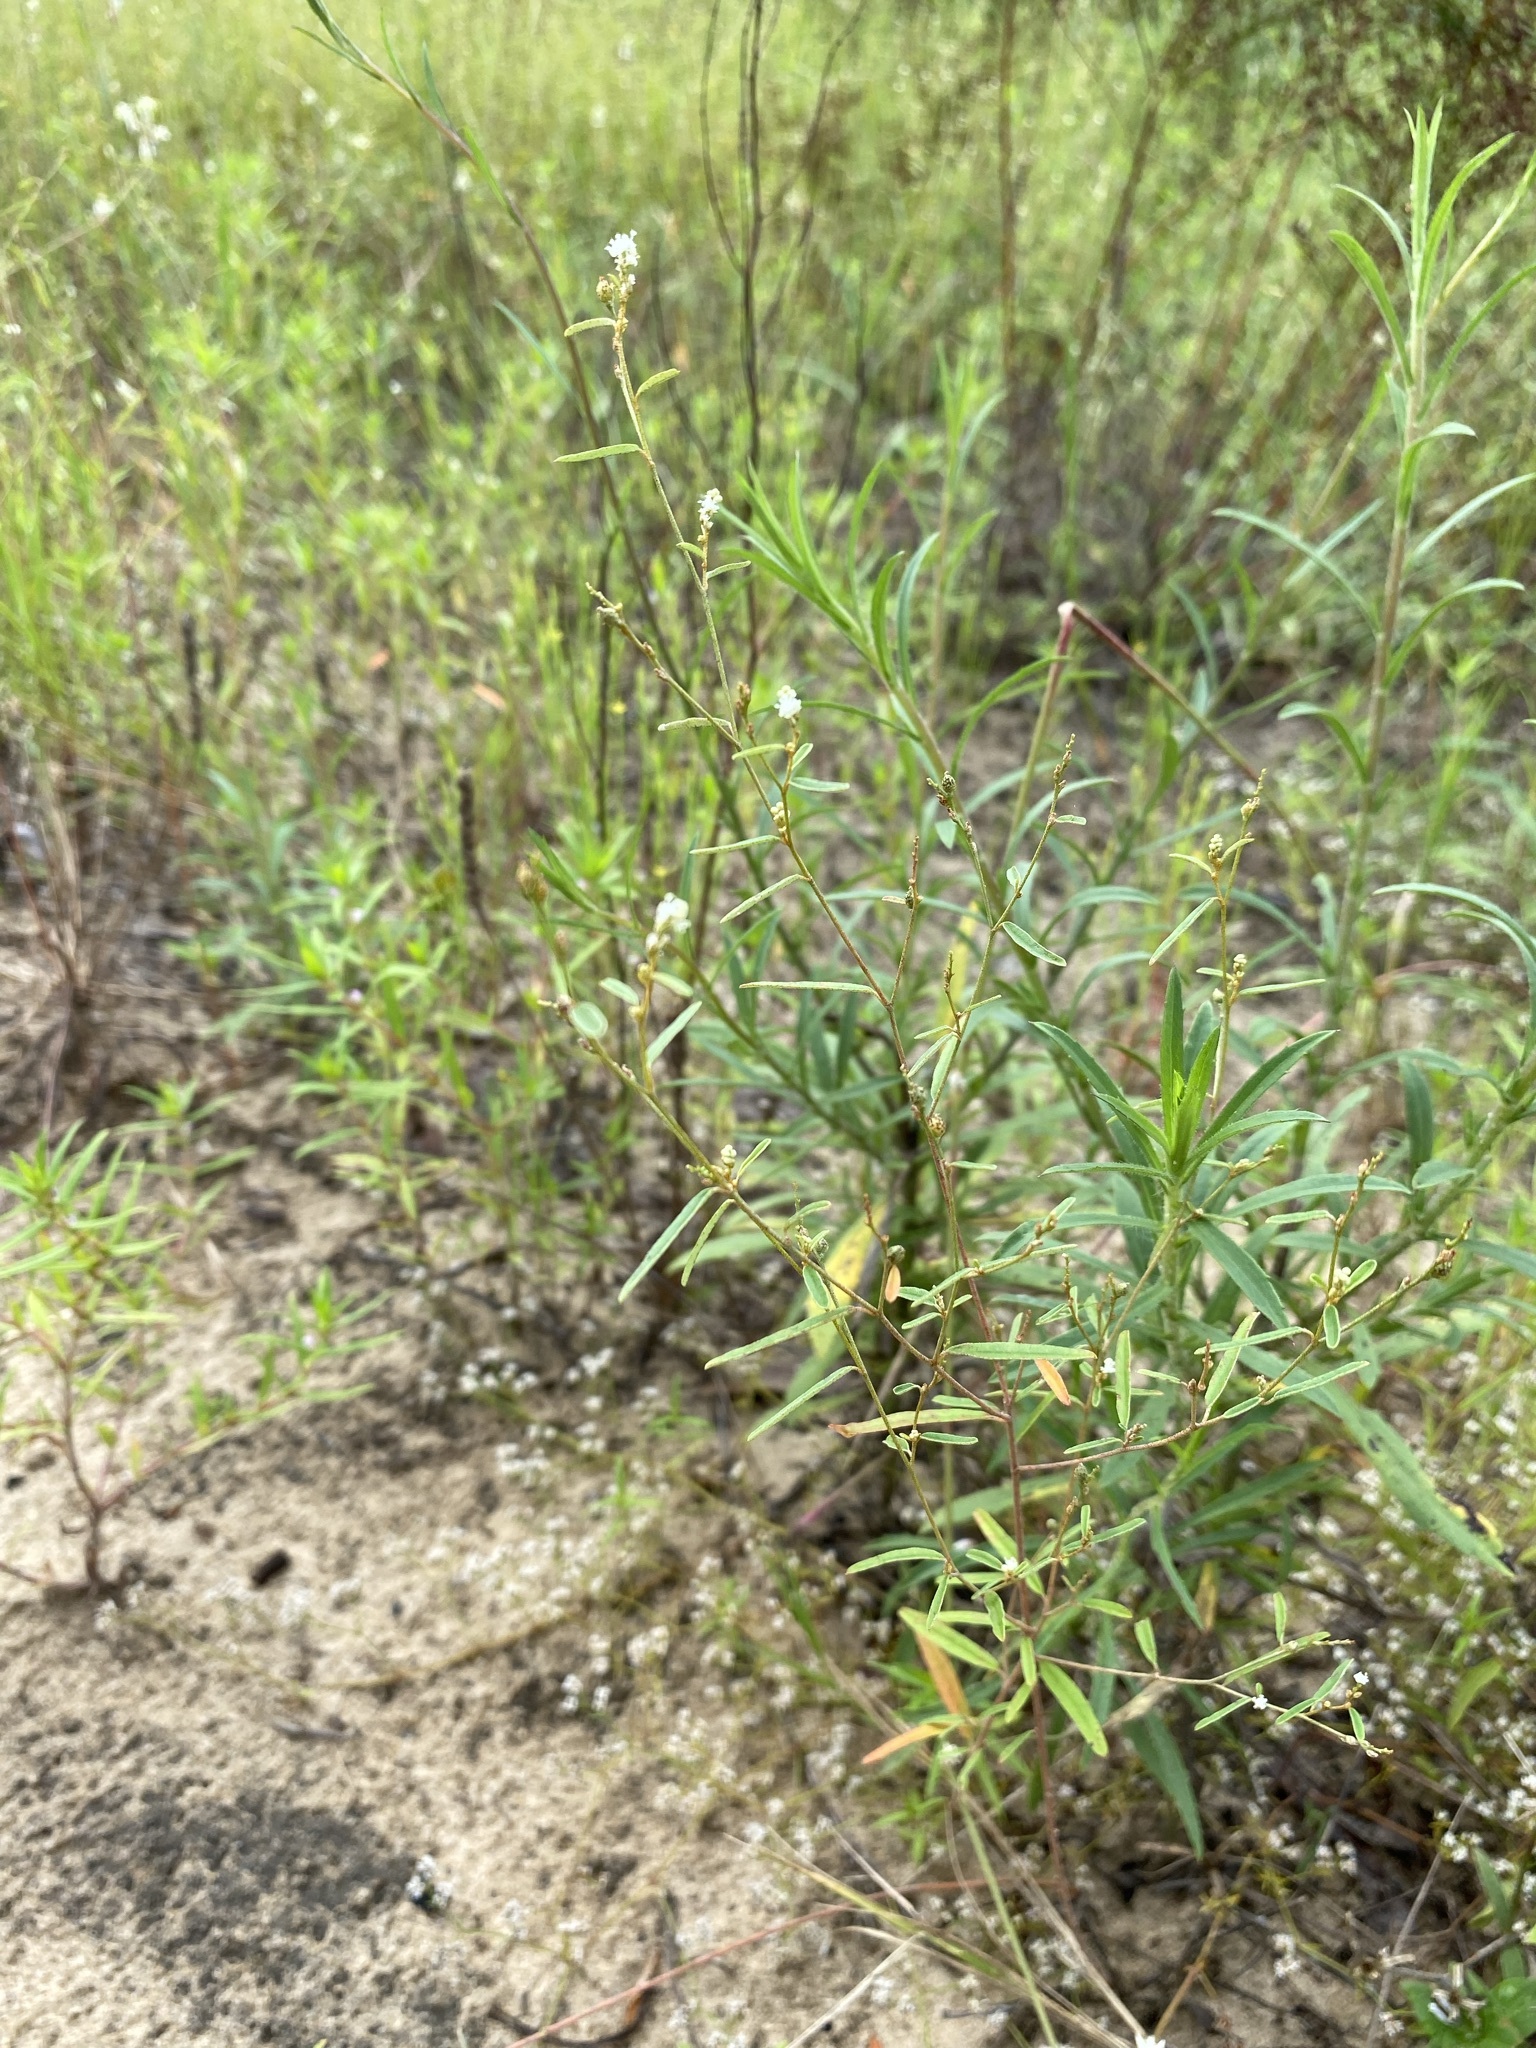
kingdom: Plantae
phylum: Tracheophyta
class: Magnoliopsida
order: Malpighiales
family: Euphorbiaceae
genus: Croton
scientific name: Croton michauxii
